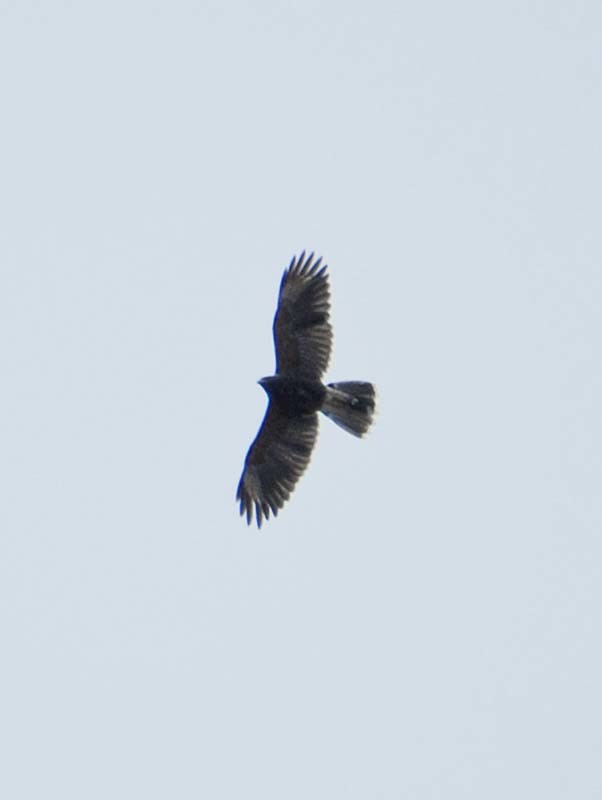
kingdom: Animalia
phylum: Chordata
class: Aves
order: Accipitriformes
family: Accipitridae
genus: Parabuteo
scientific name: Parabuteo unicinctus
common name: Harris's hawk
